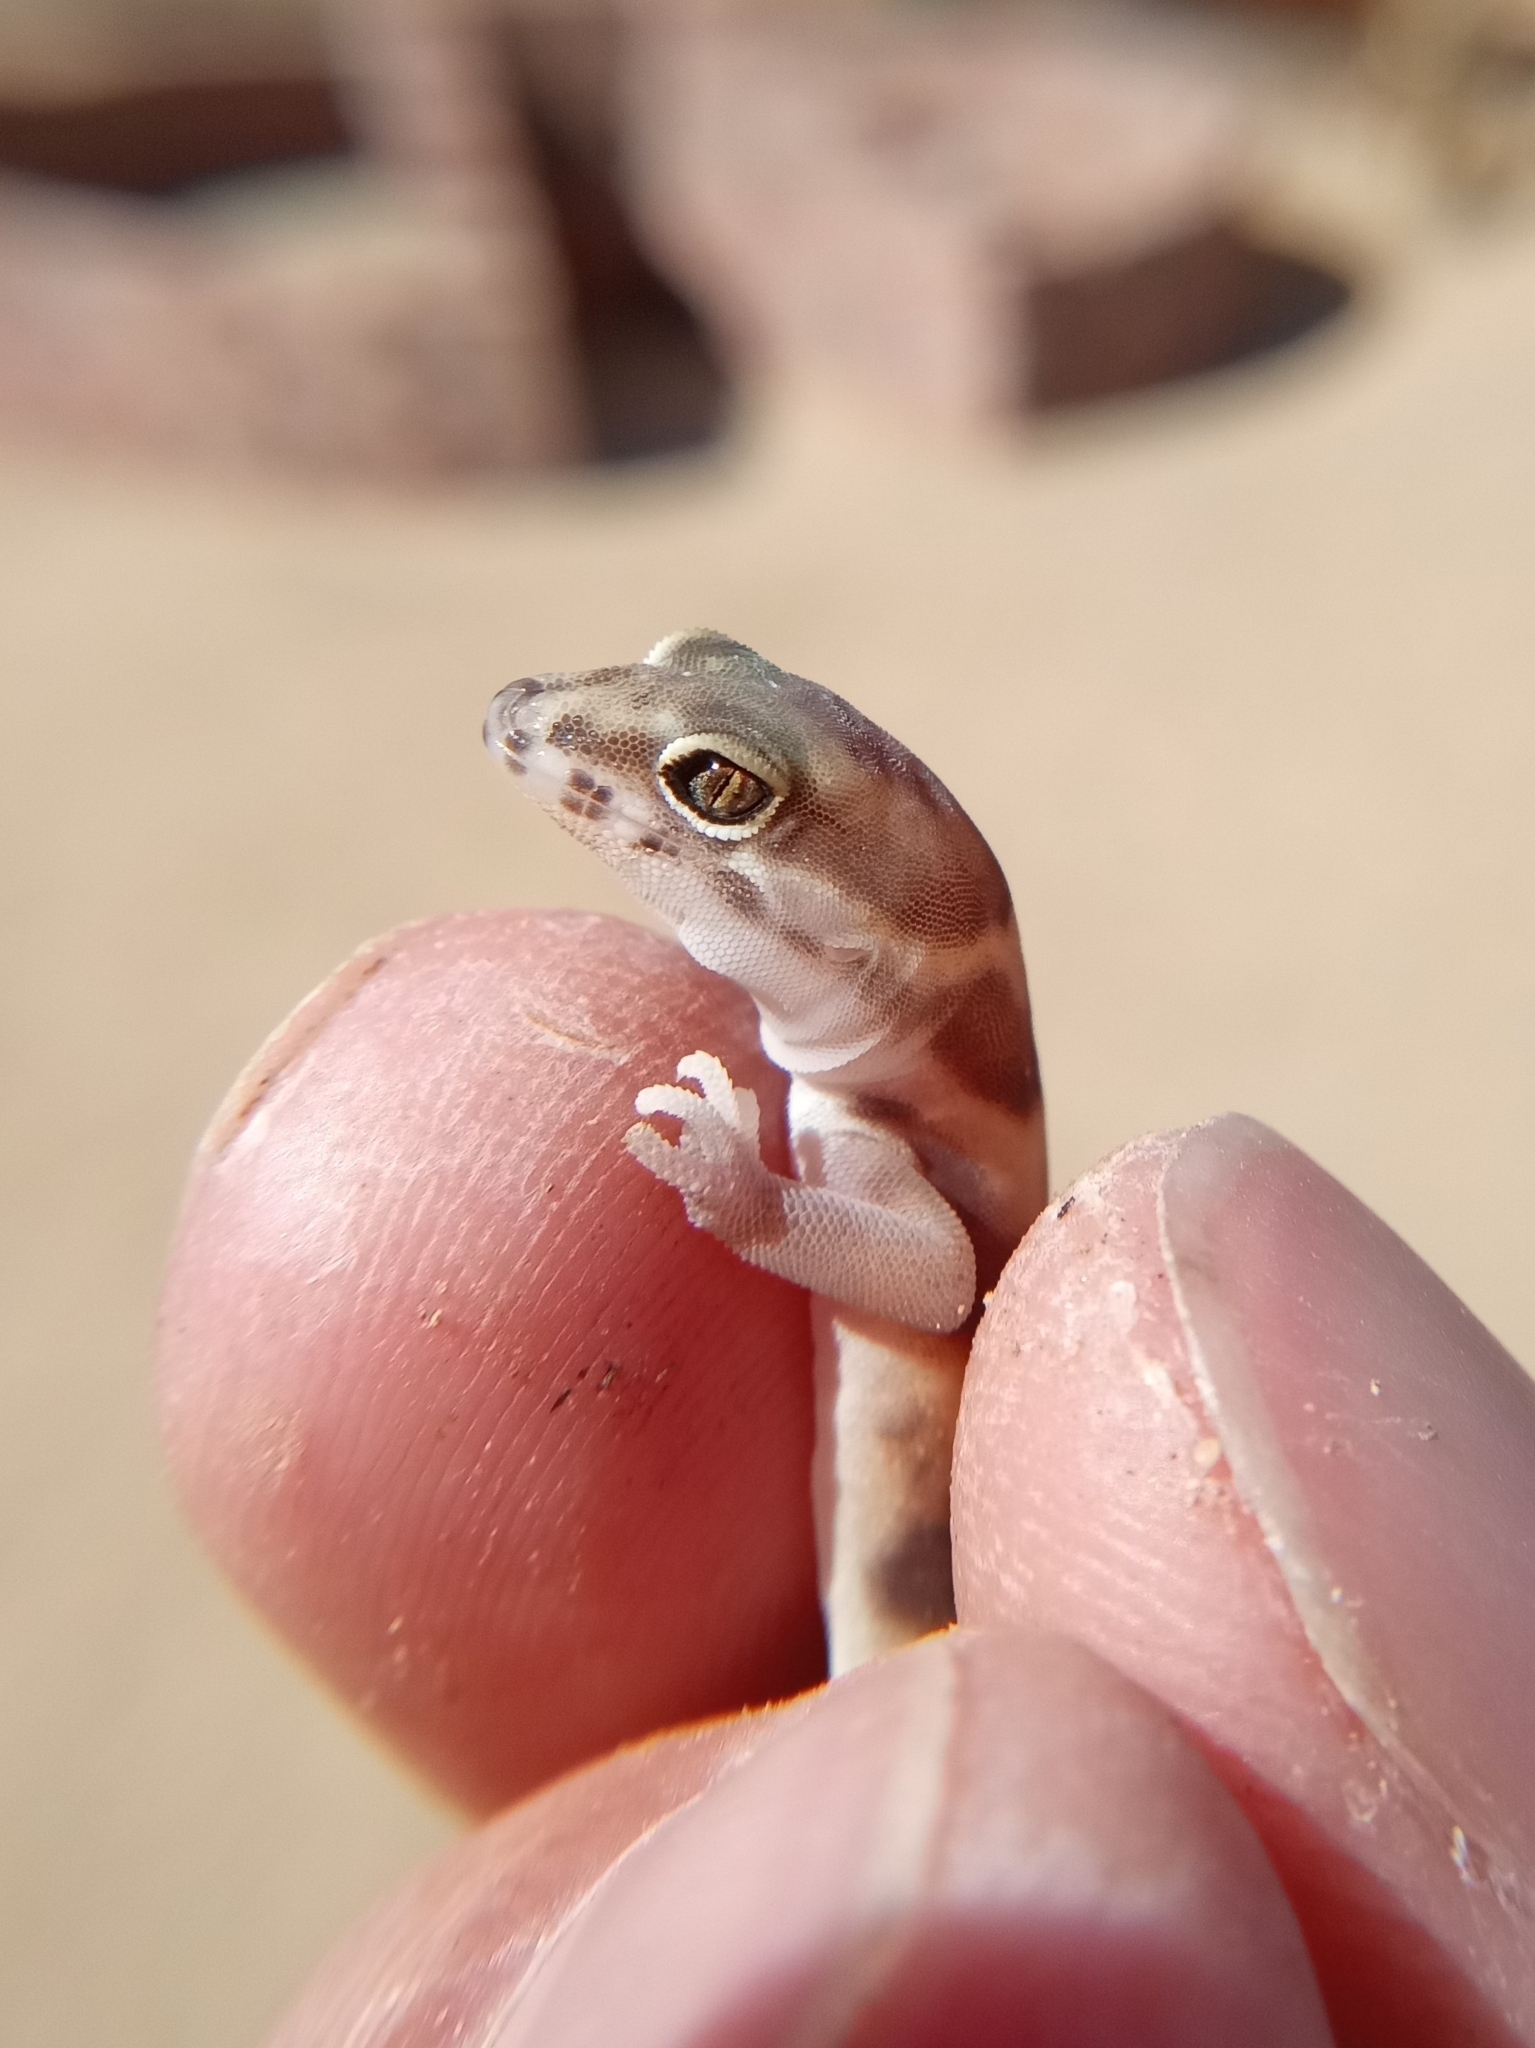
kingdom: Animalia
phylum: Chordata
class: Squamata
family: Eublepharidae
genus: Coleonyx
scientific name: Coleonyx variegatus
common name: Western banded gecko
